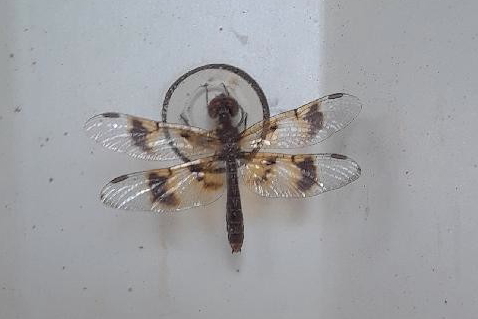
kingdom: Animalia
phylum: Arthropoda
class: Insecta
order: Odonata
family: Libellulidae
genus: Perithemis
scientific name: Perithemis tenera
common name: Eastern amberwing
